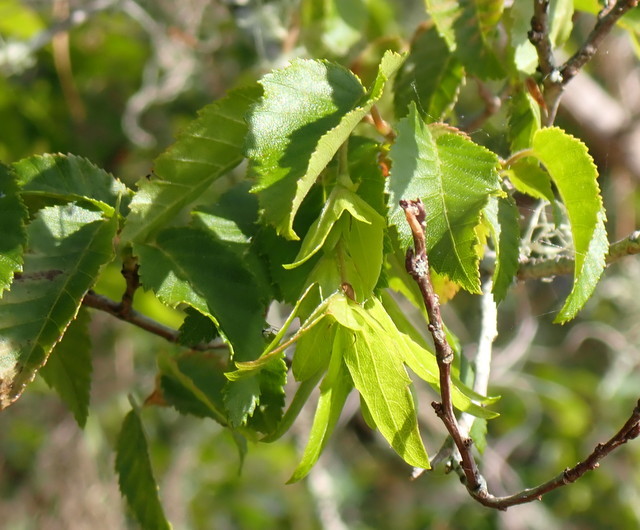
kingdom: Plantae
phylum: Tracheophyta
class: Magnoliopsida
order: Fagales
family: Betulaceae
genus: Carpinus
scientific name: Carpinus caroliniana
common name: American hornbeam
